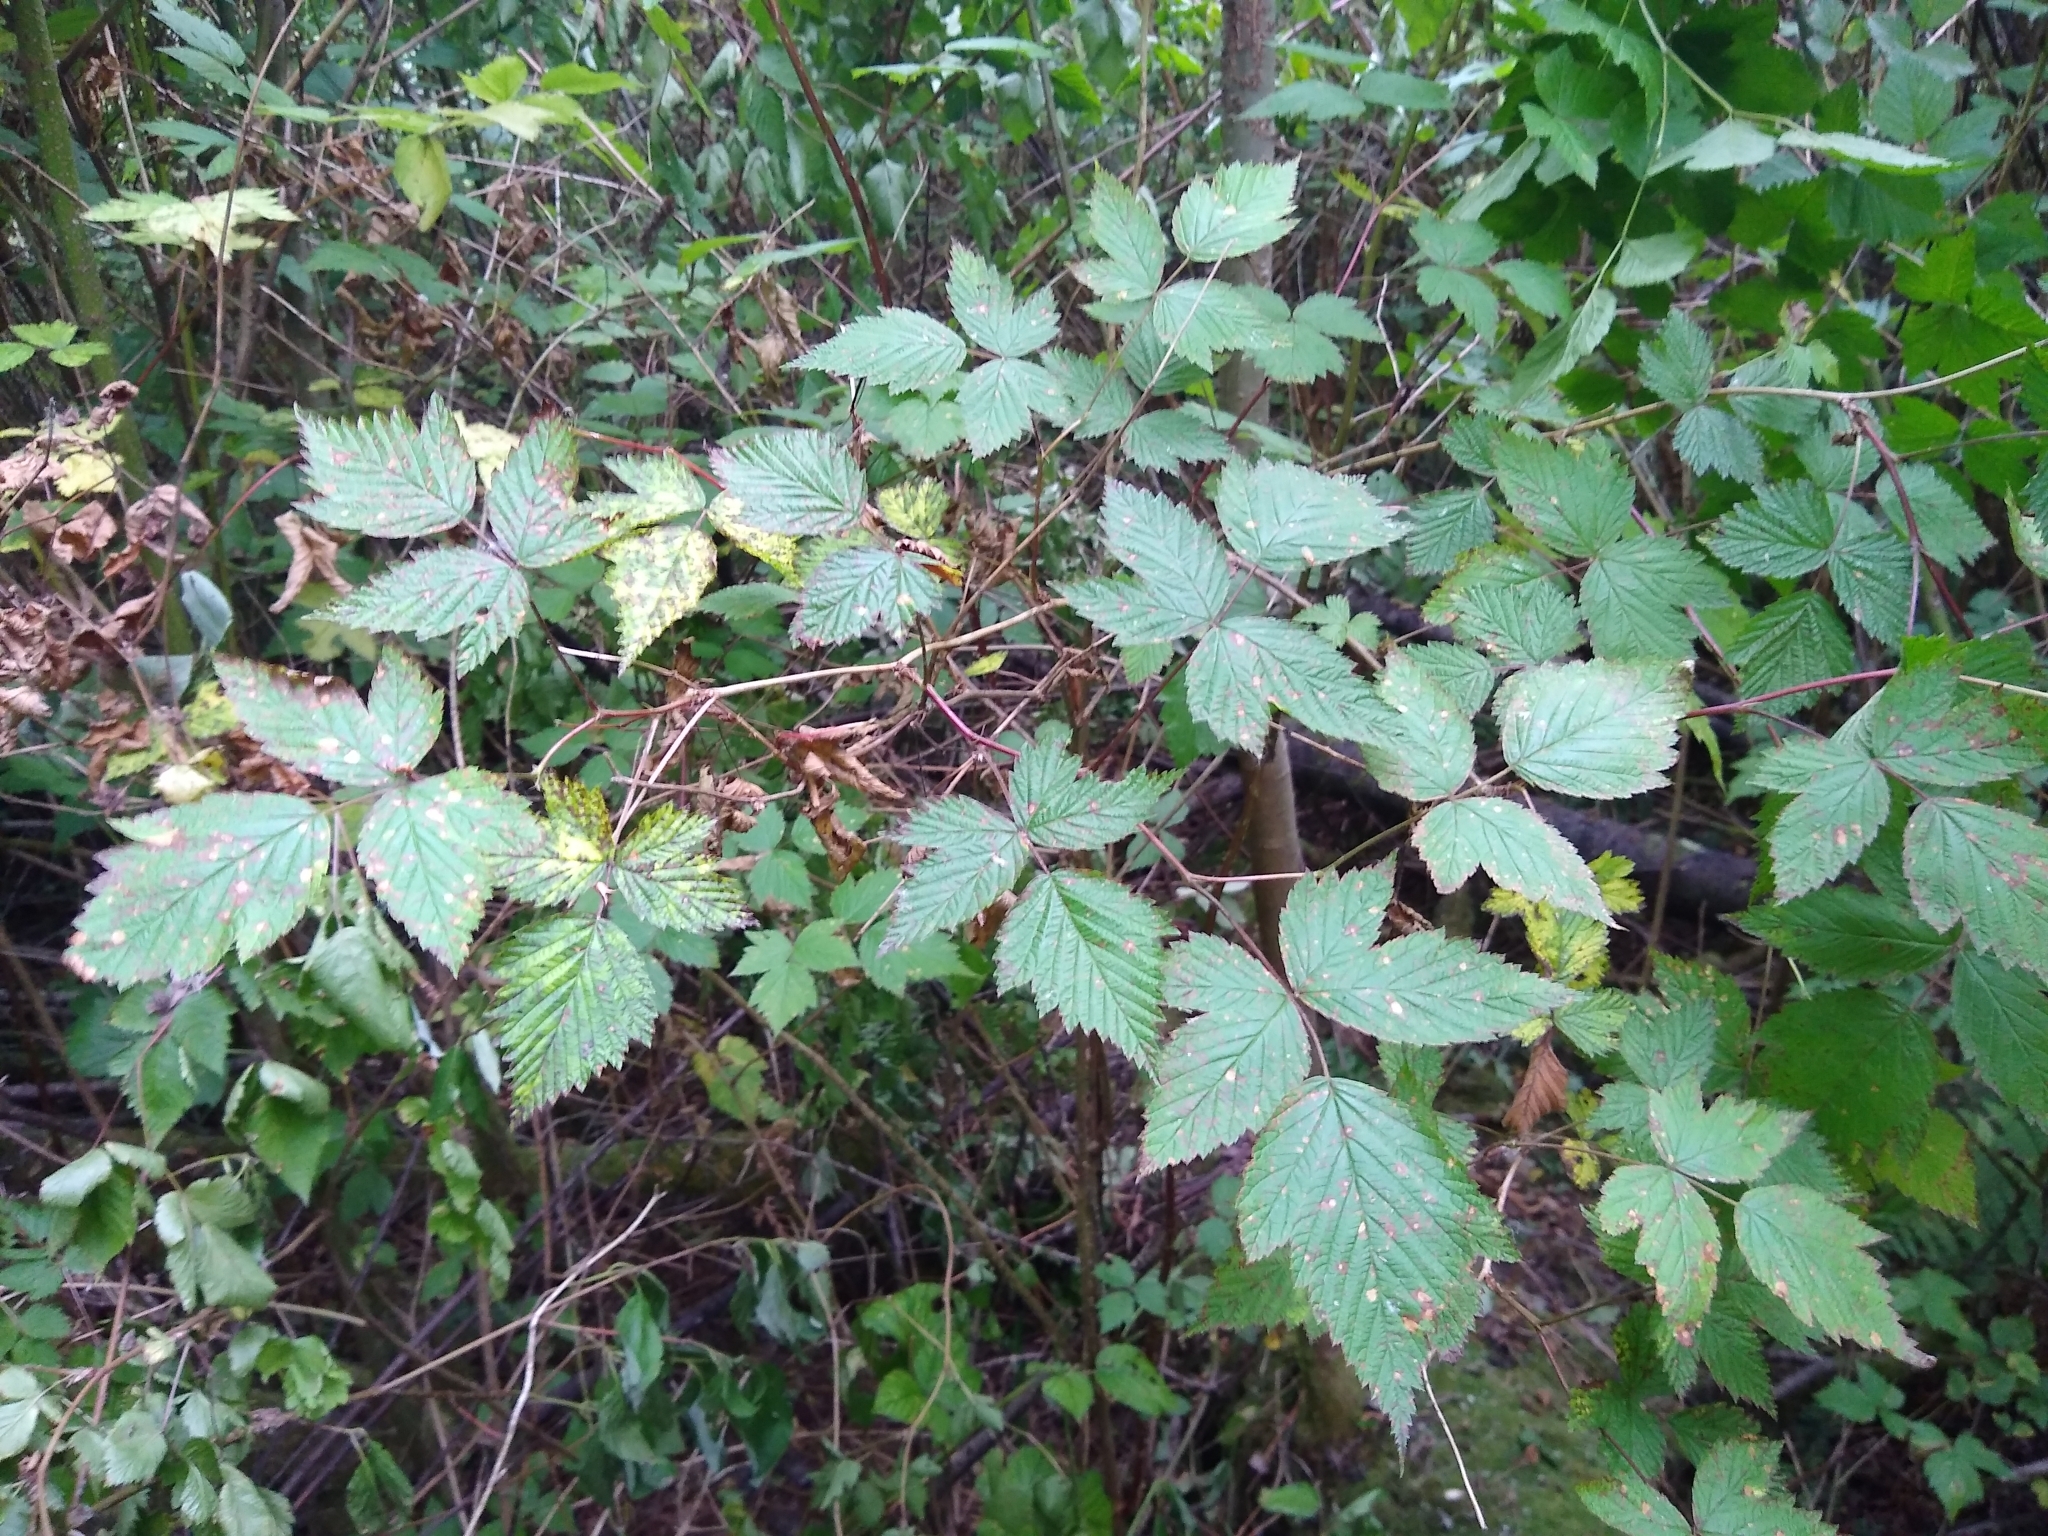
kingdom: Plantae
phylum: Tracheophyta
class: Magnoliopsida
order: Rosales
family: Rosaceae
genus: Rubus
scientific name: Rubus spectabilis
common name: Salmonberry
